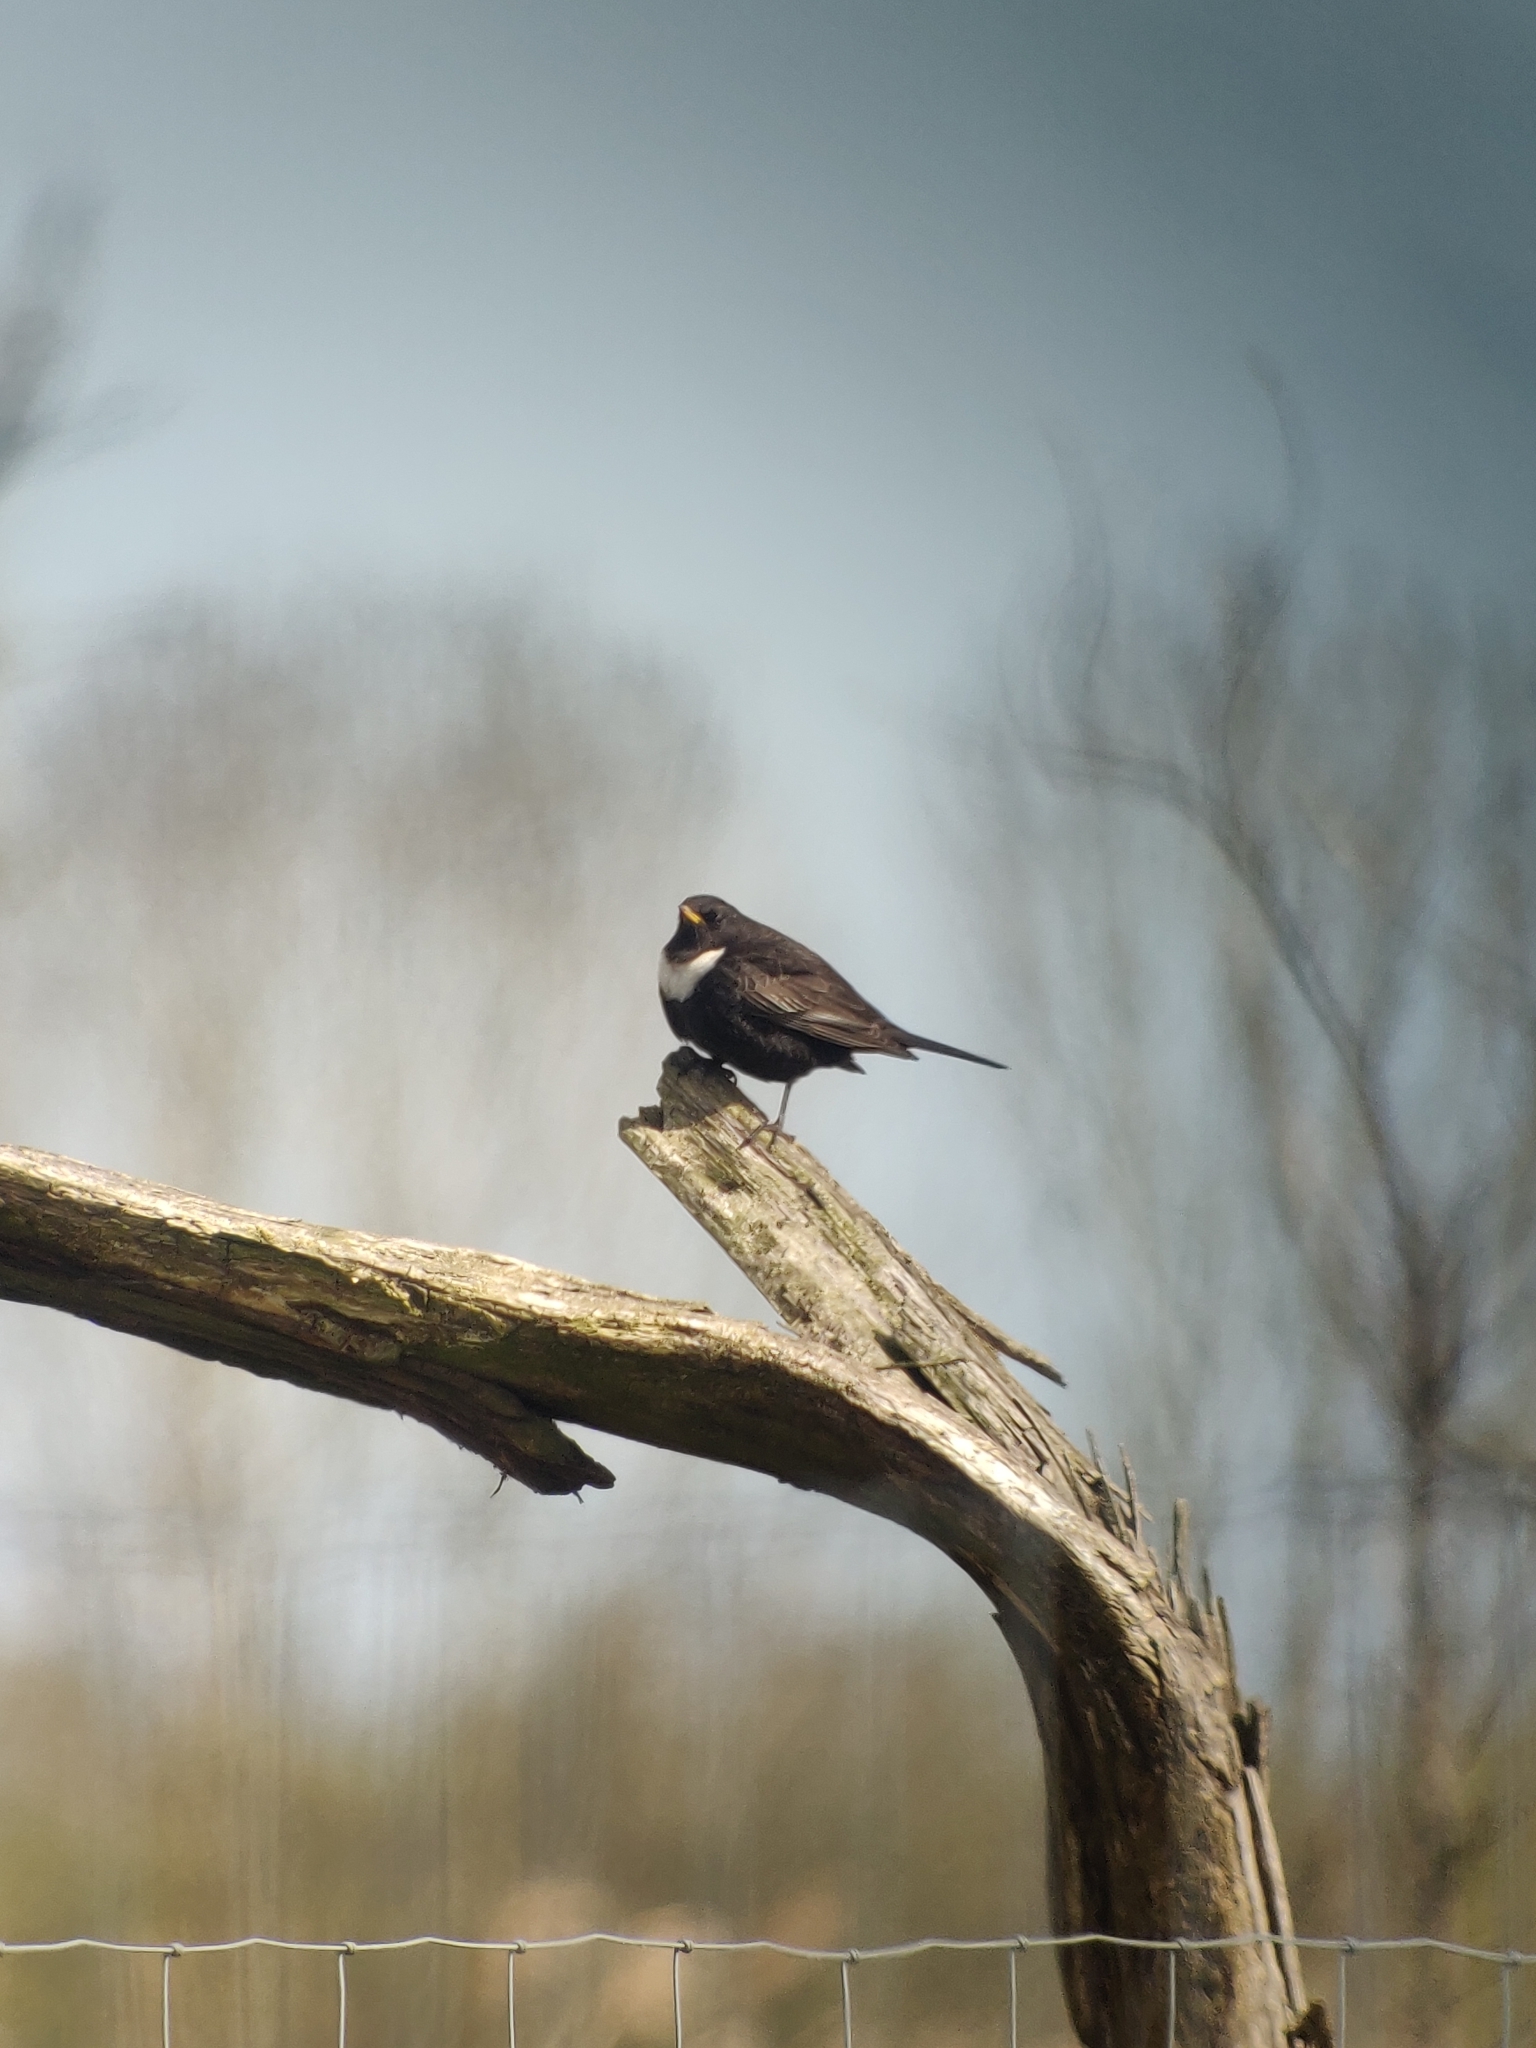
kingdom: Animalia
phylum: Chordata
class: Aves
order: Passeriformes
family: Turdidae
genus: Turdus
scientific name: Turdus torquatus
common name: Ring ouzel
